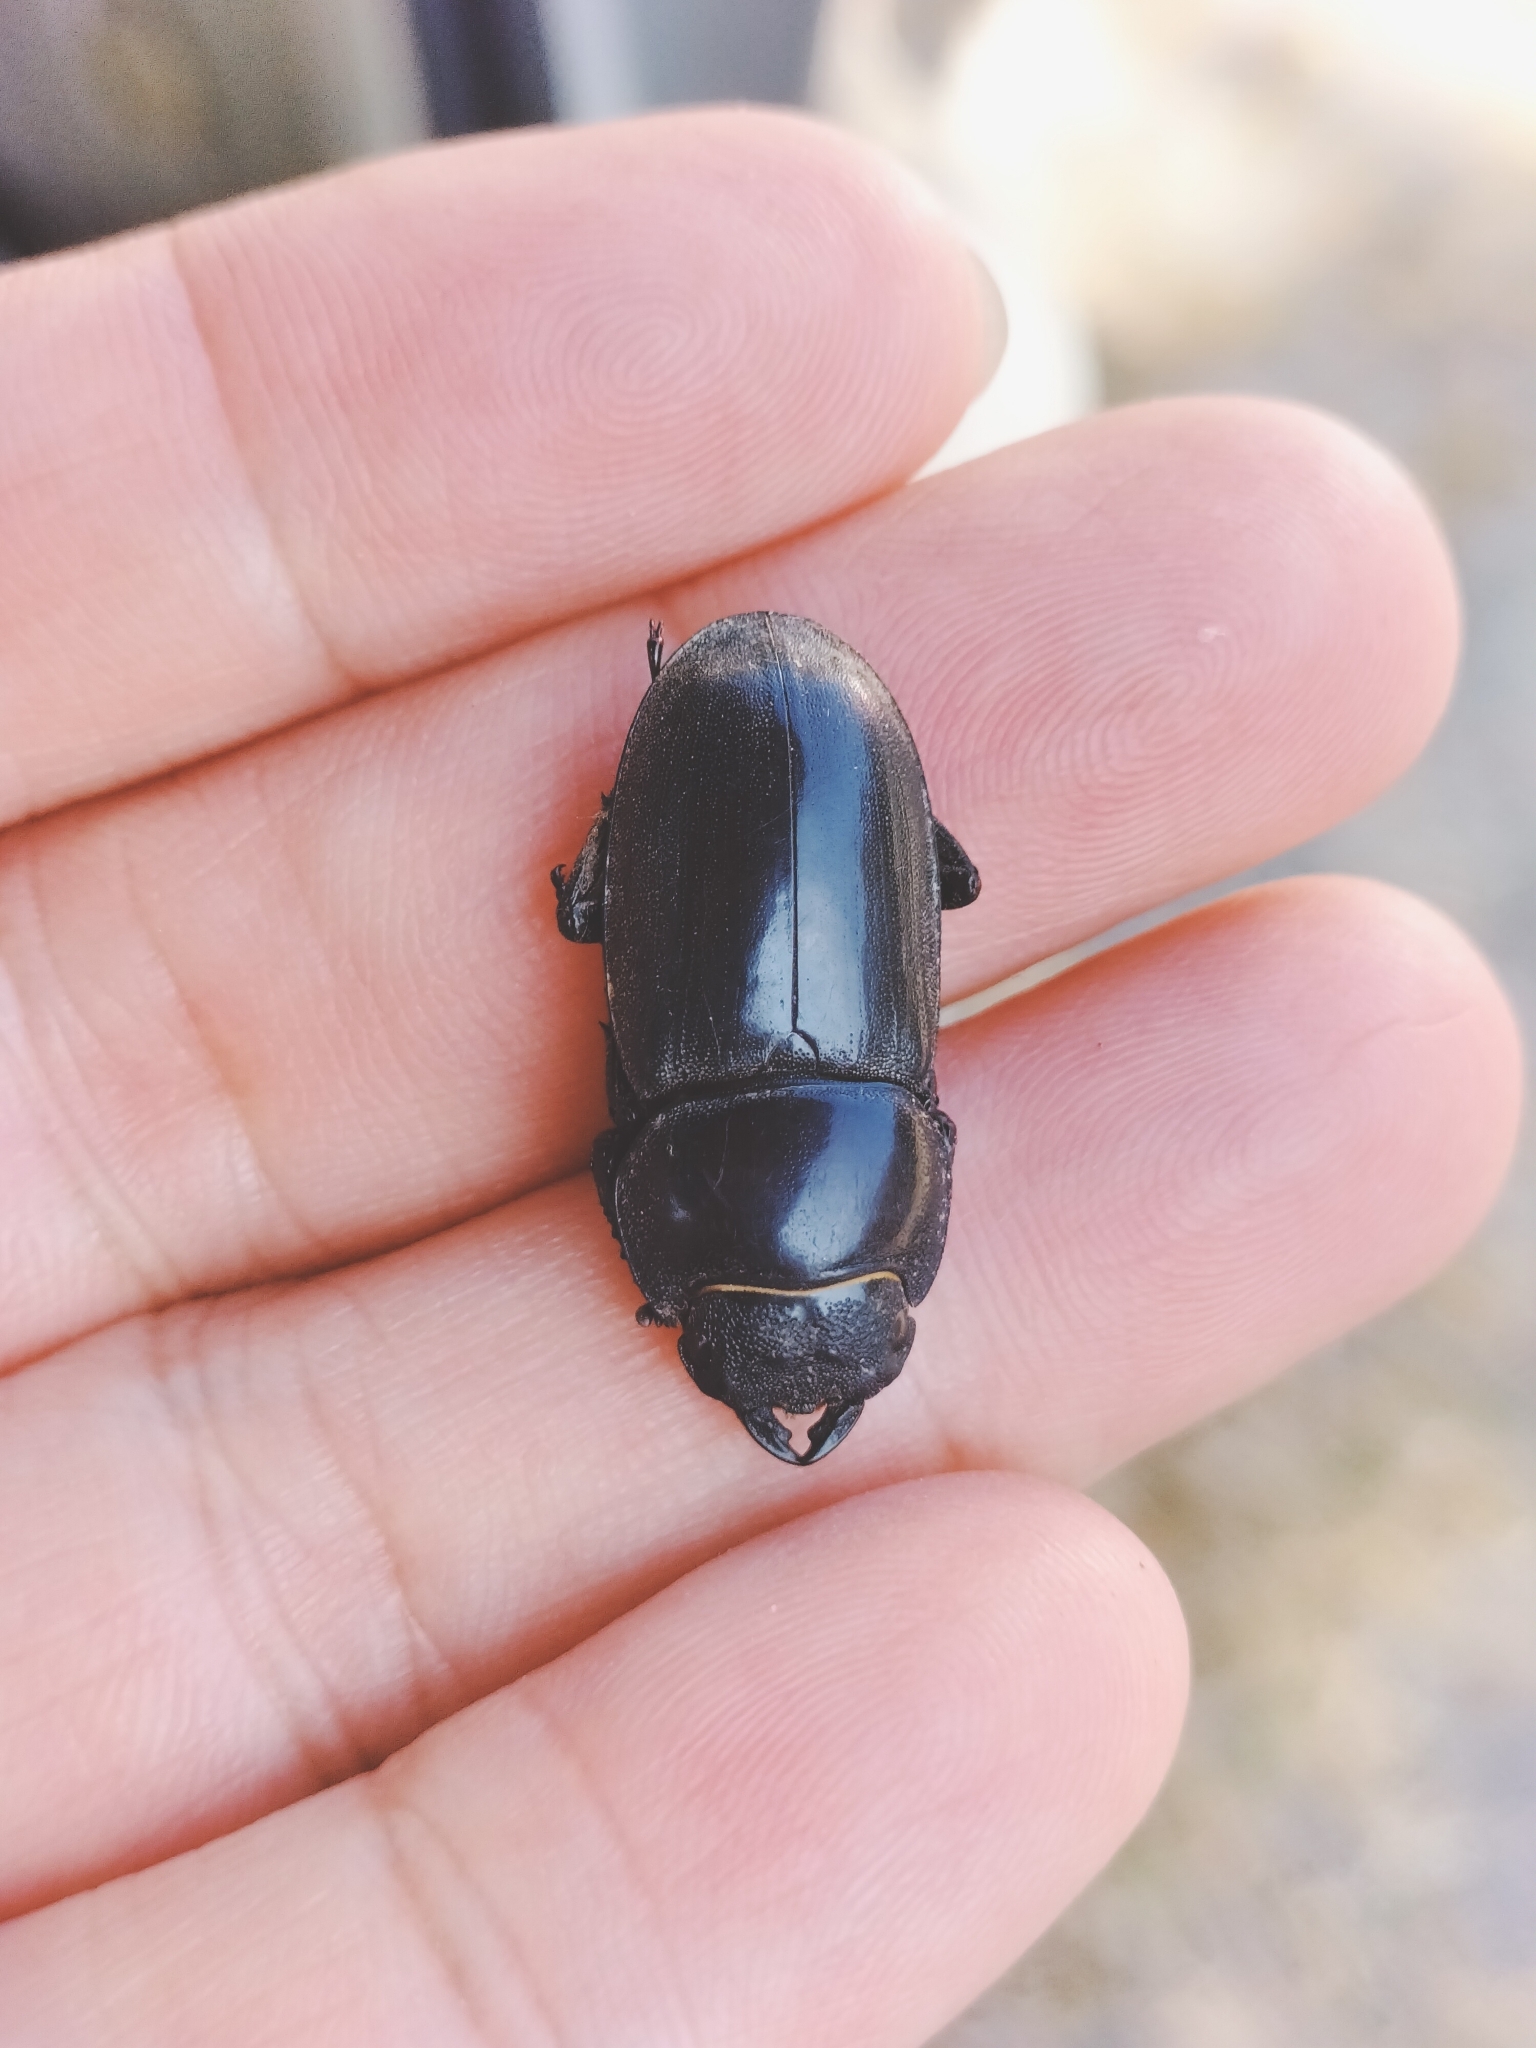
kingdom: Animalia
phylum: Arthropoda
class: Insecta
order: Coleoptera
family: Lucanidae
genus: Serrognathus
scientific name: Serrognathus titanus
